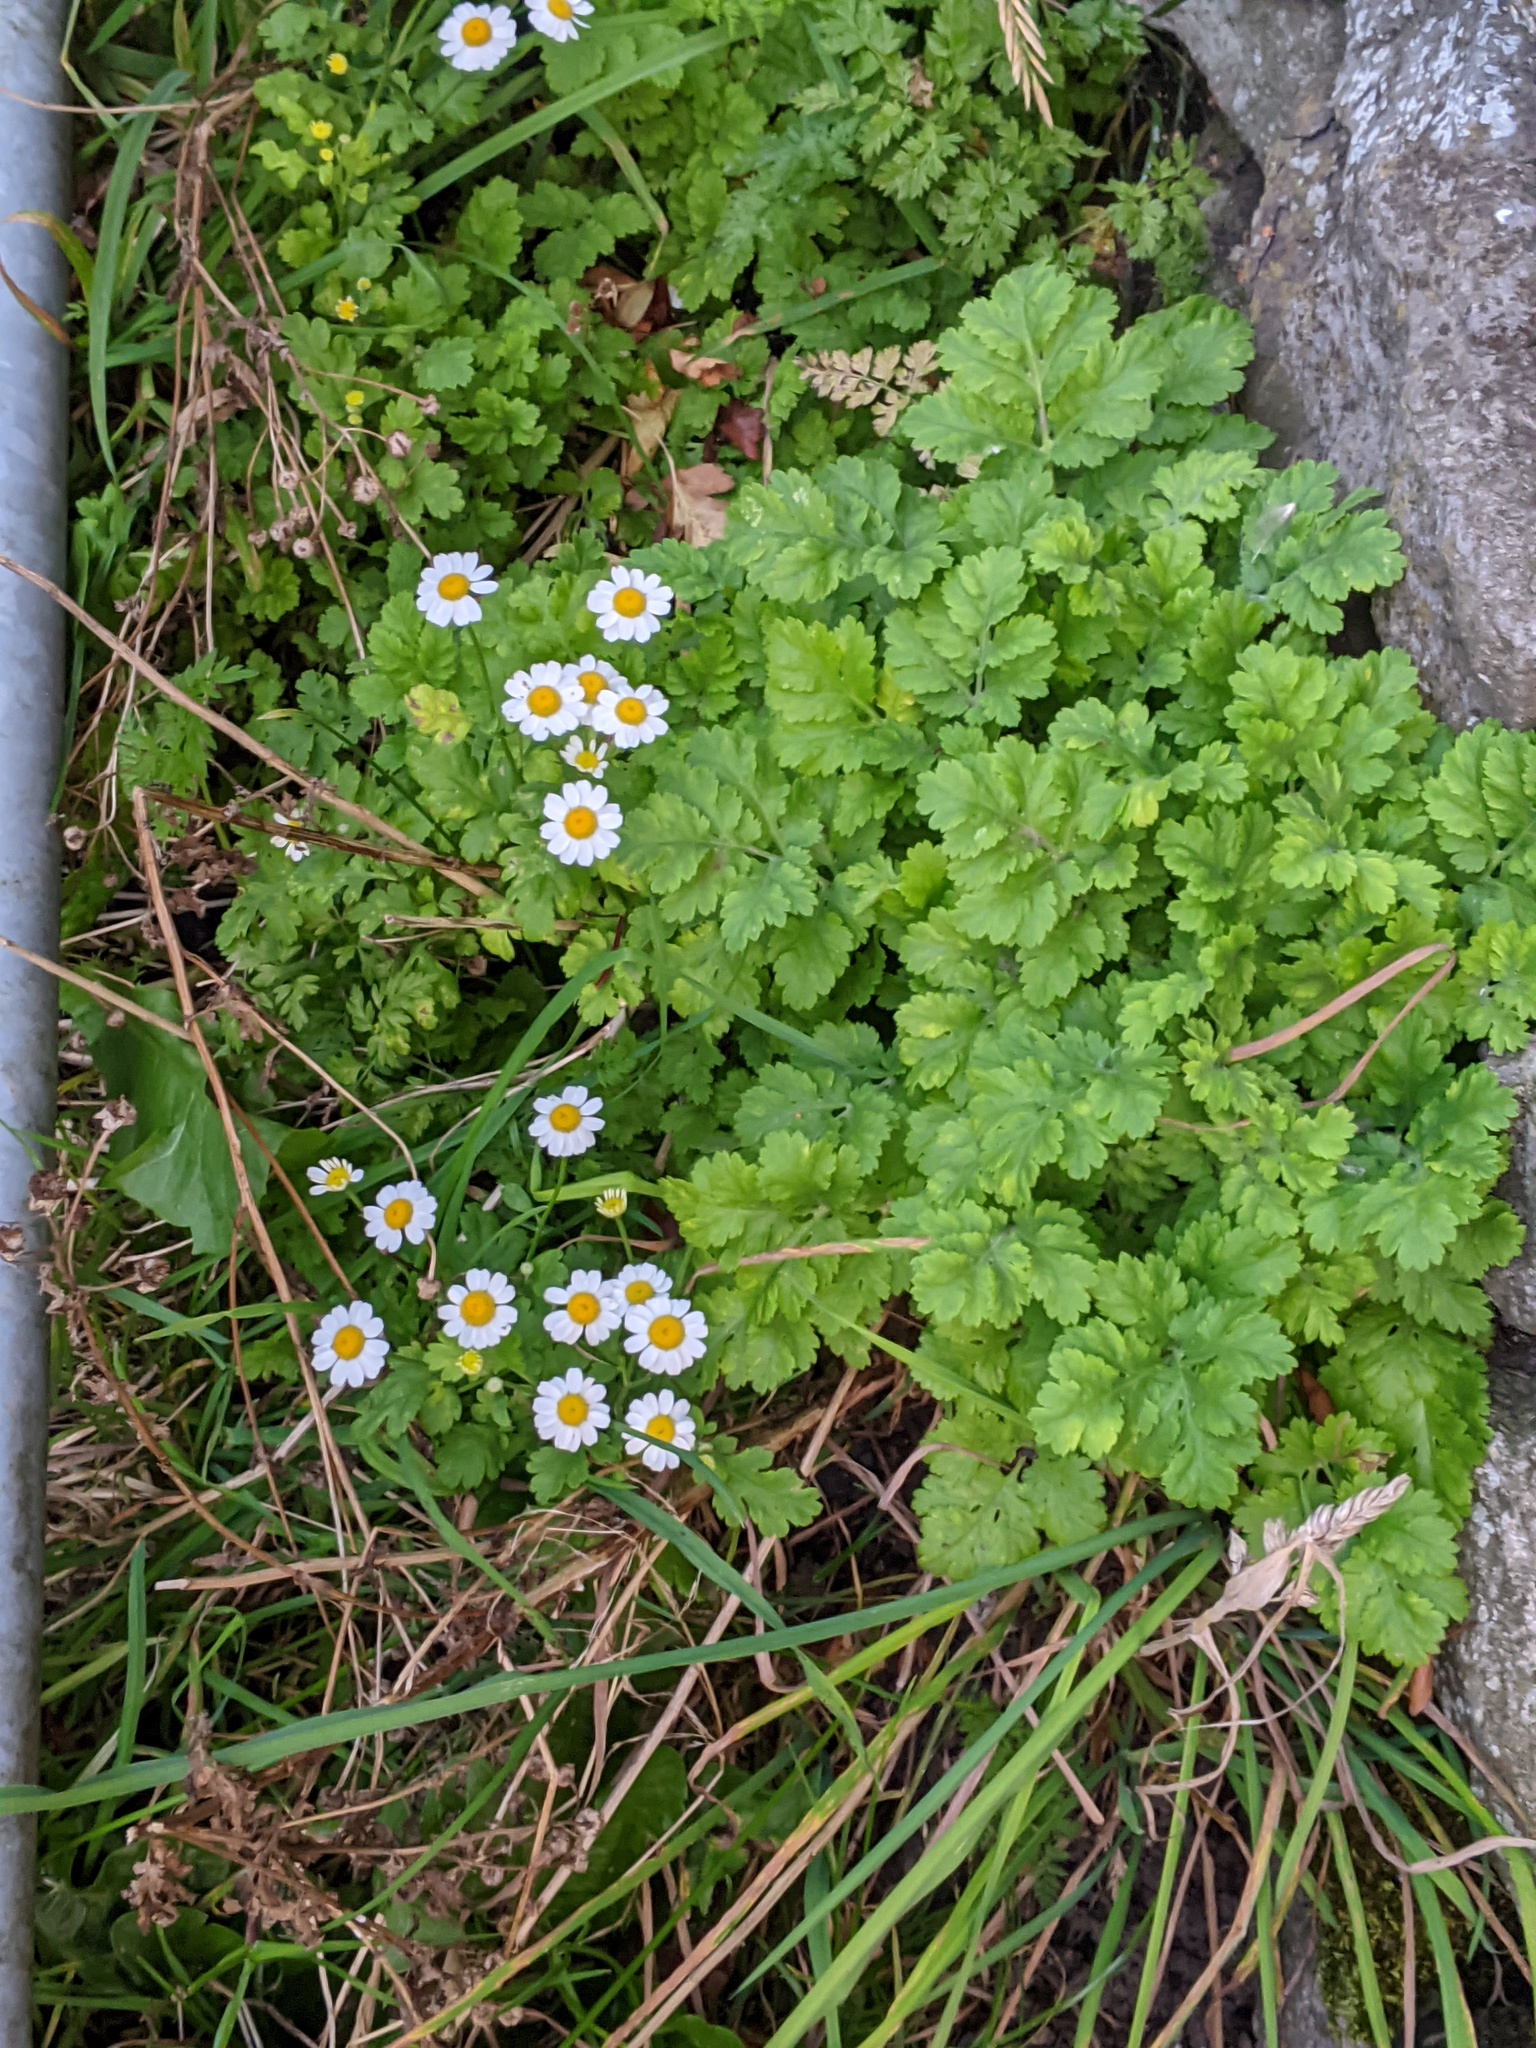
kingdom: Plantae
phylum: Tracheophyta
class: Magnoliopsida
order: Asterales
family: Asteraceae
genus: Tanacetum
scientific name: Tanacetum parthenium
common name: Feverfew
